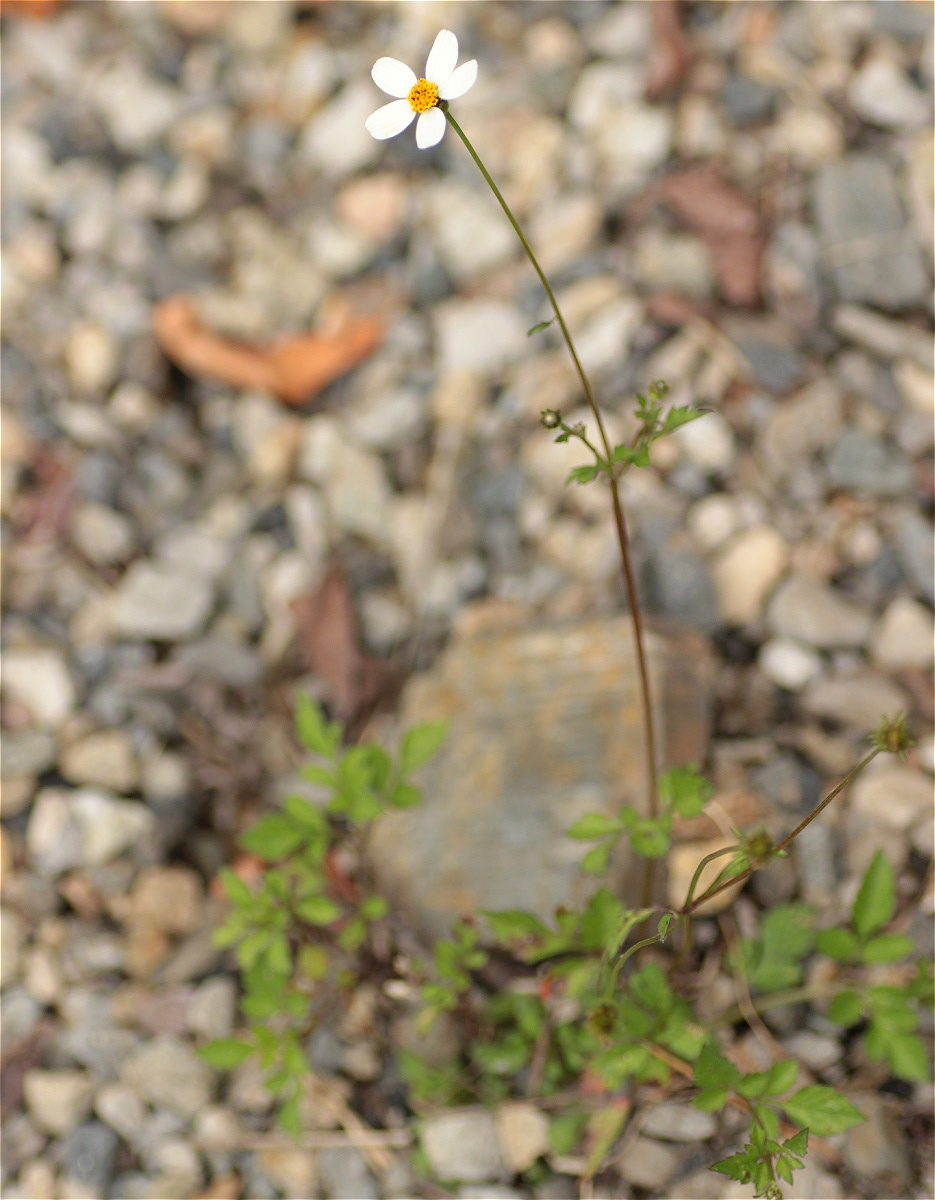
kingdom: Plantae
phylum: Tracheophyta
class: Magnoliopsida
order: Asterales
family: Asteraceae
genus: Bidens
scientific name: Bidens alba
